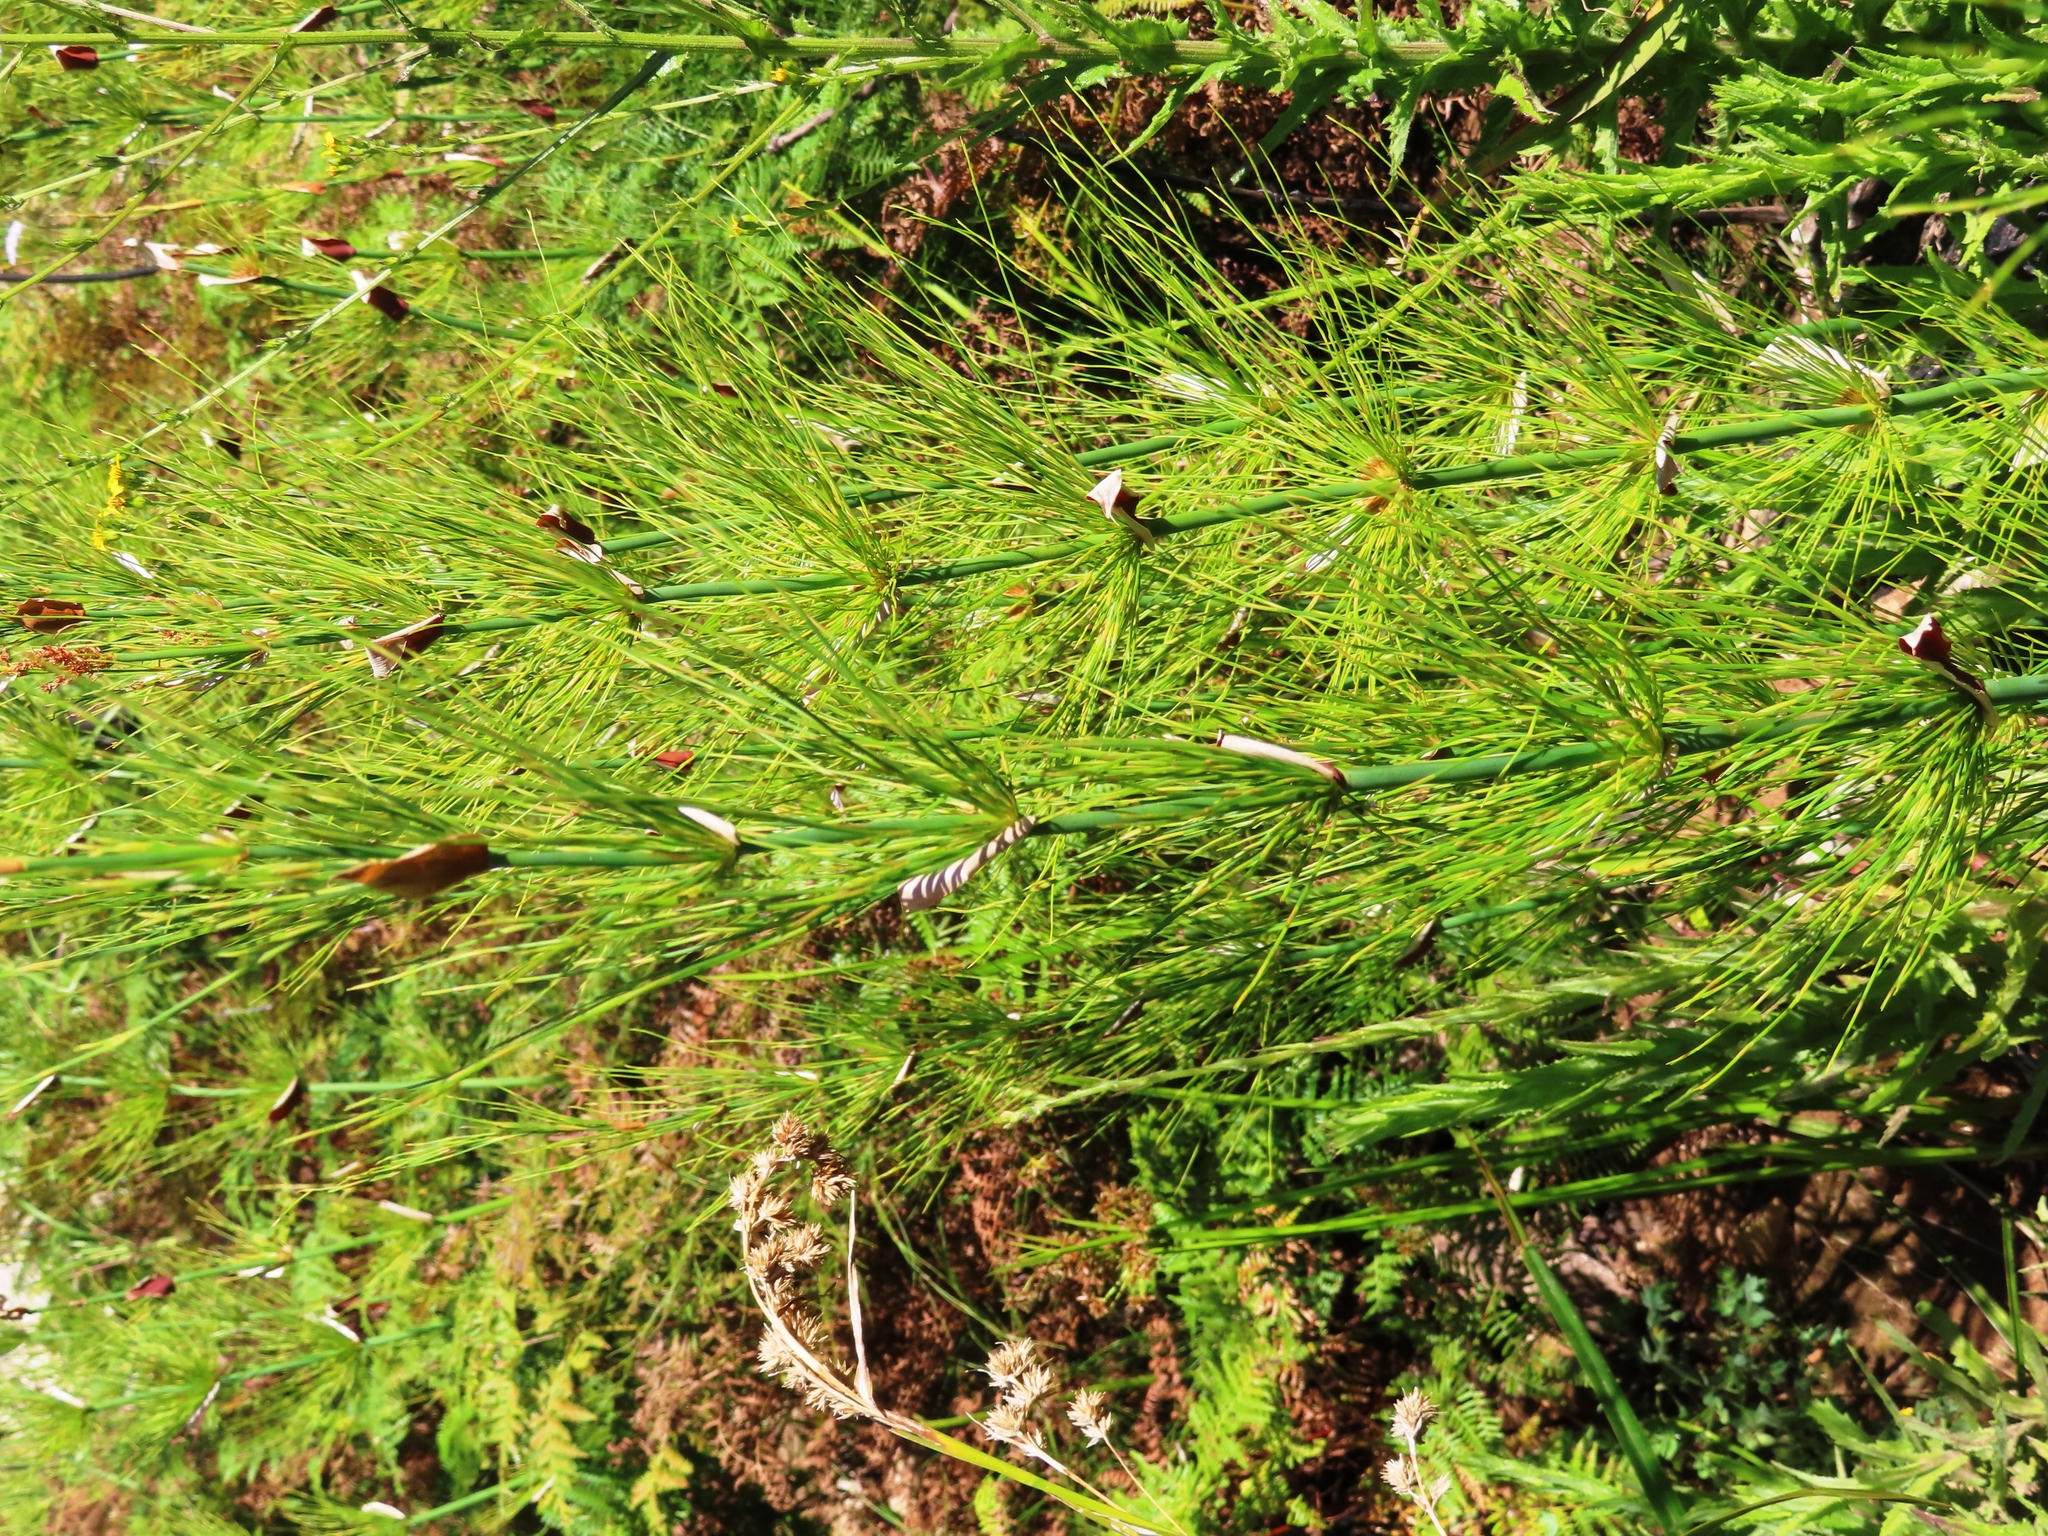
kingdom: Plantae
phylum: Tracheophyta
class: Liliopsida
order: Poales
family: Restionaceae
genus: Elegia
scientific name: Elegia capensis
